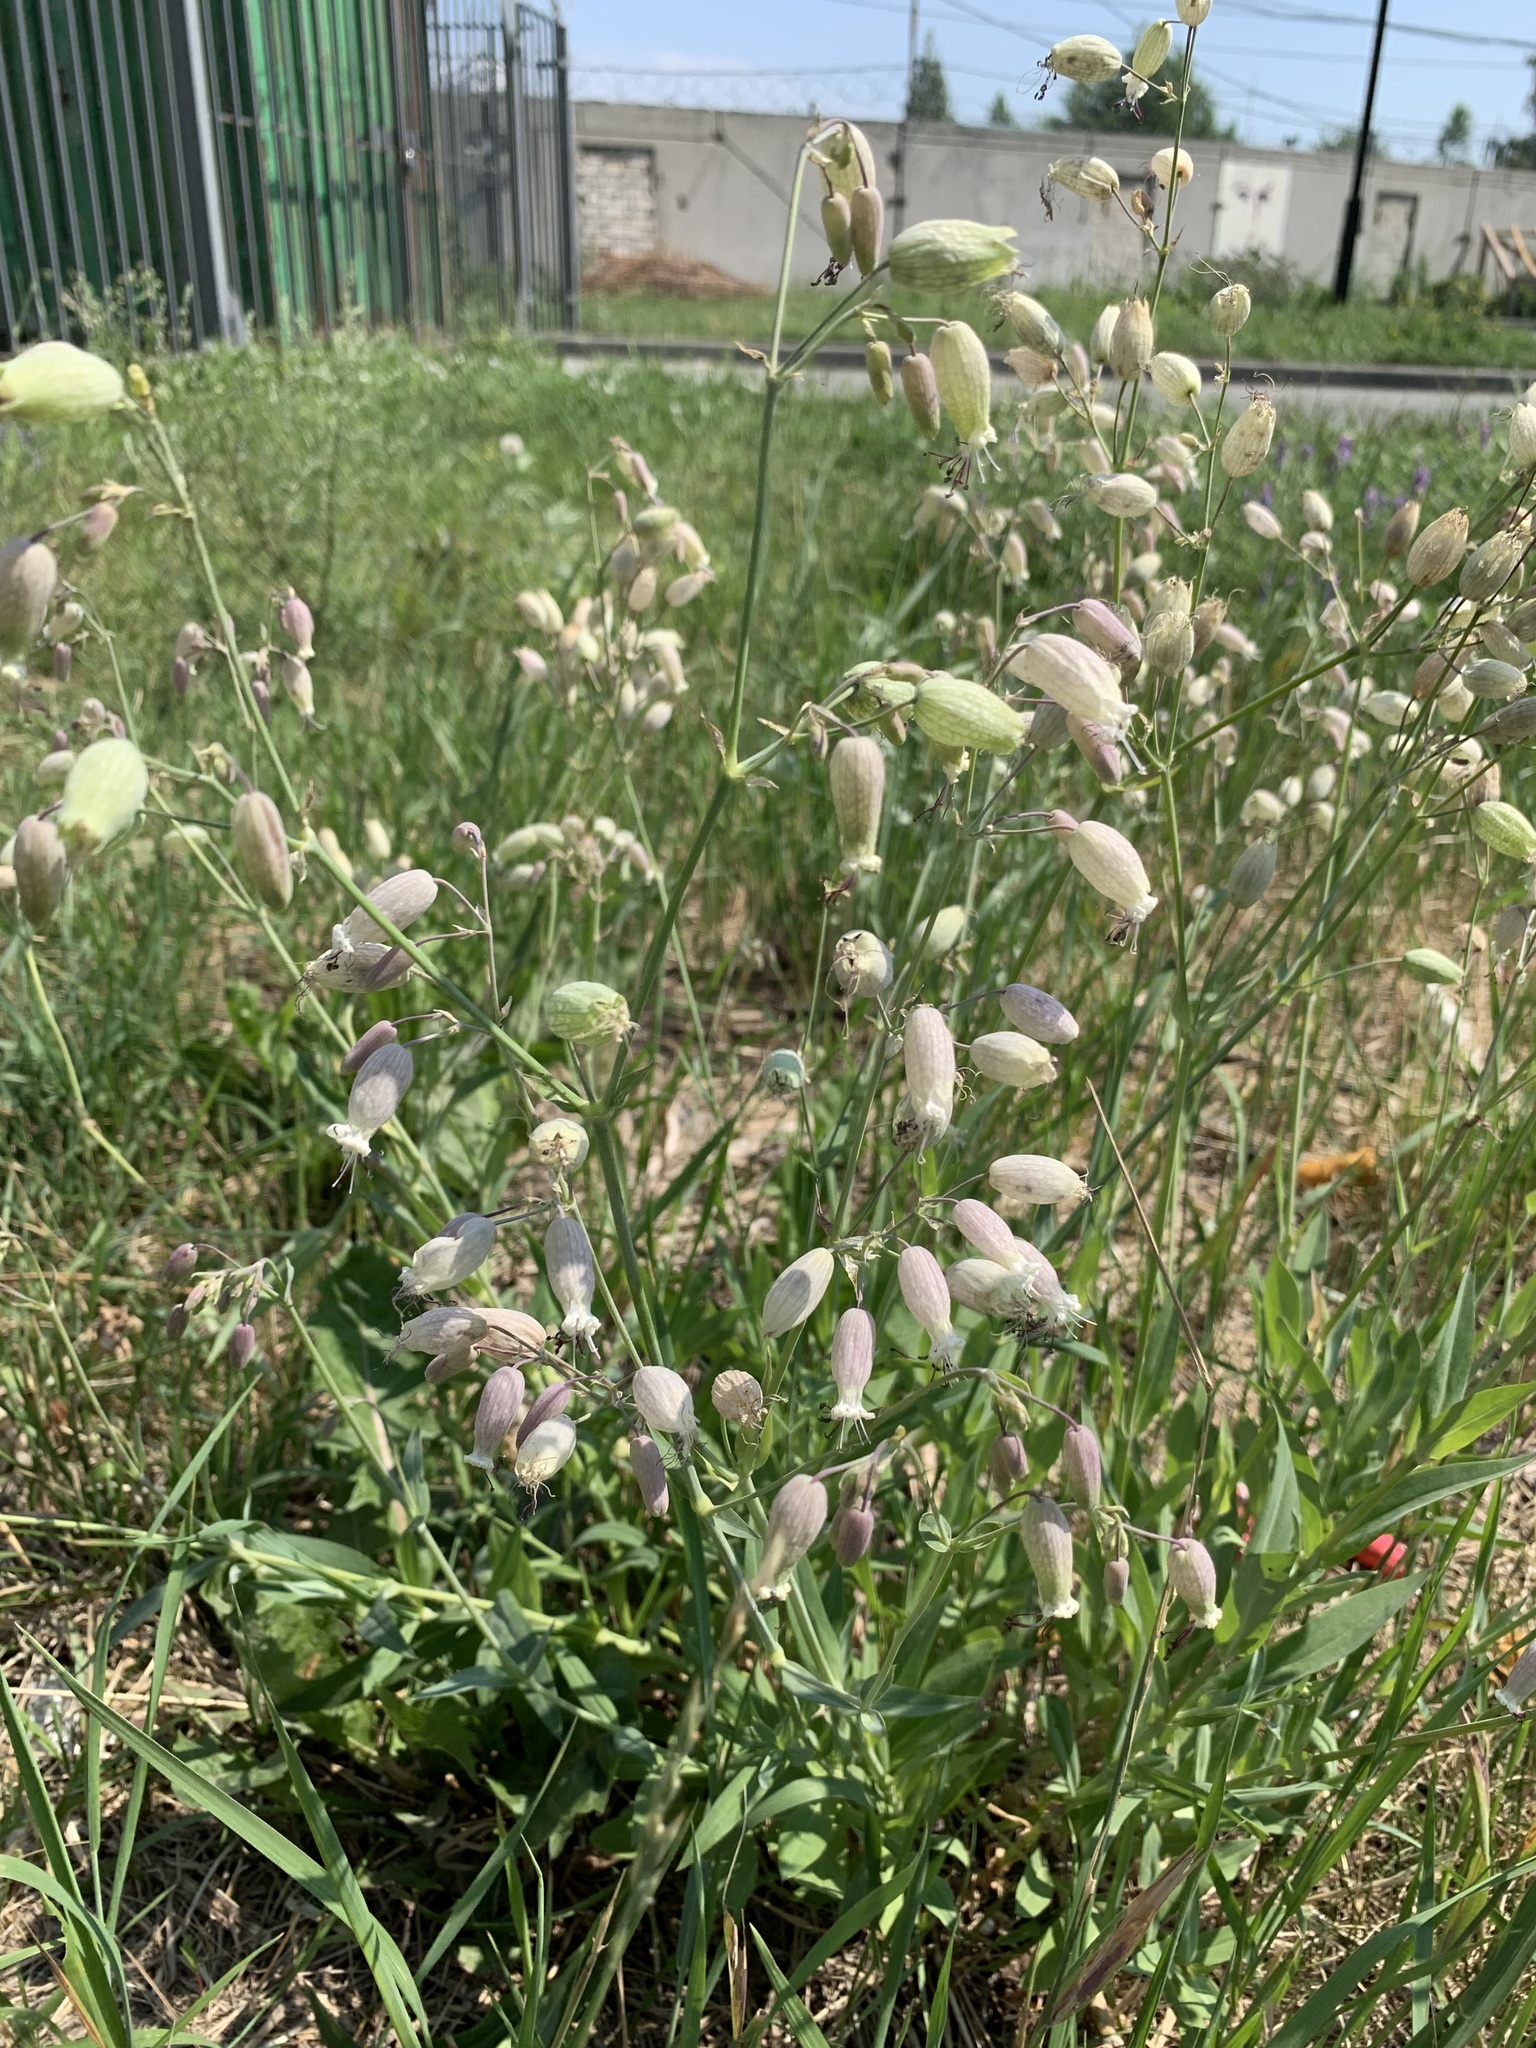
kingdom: Plantae
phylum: Tracheophyta
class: Magnoliopsida
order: Caryophyllales
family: Caryophyllaceae
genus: Silene
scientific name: Silene vulgaris
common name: Bladder campion
